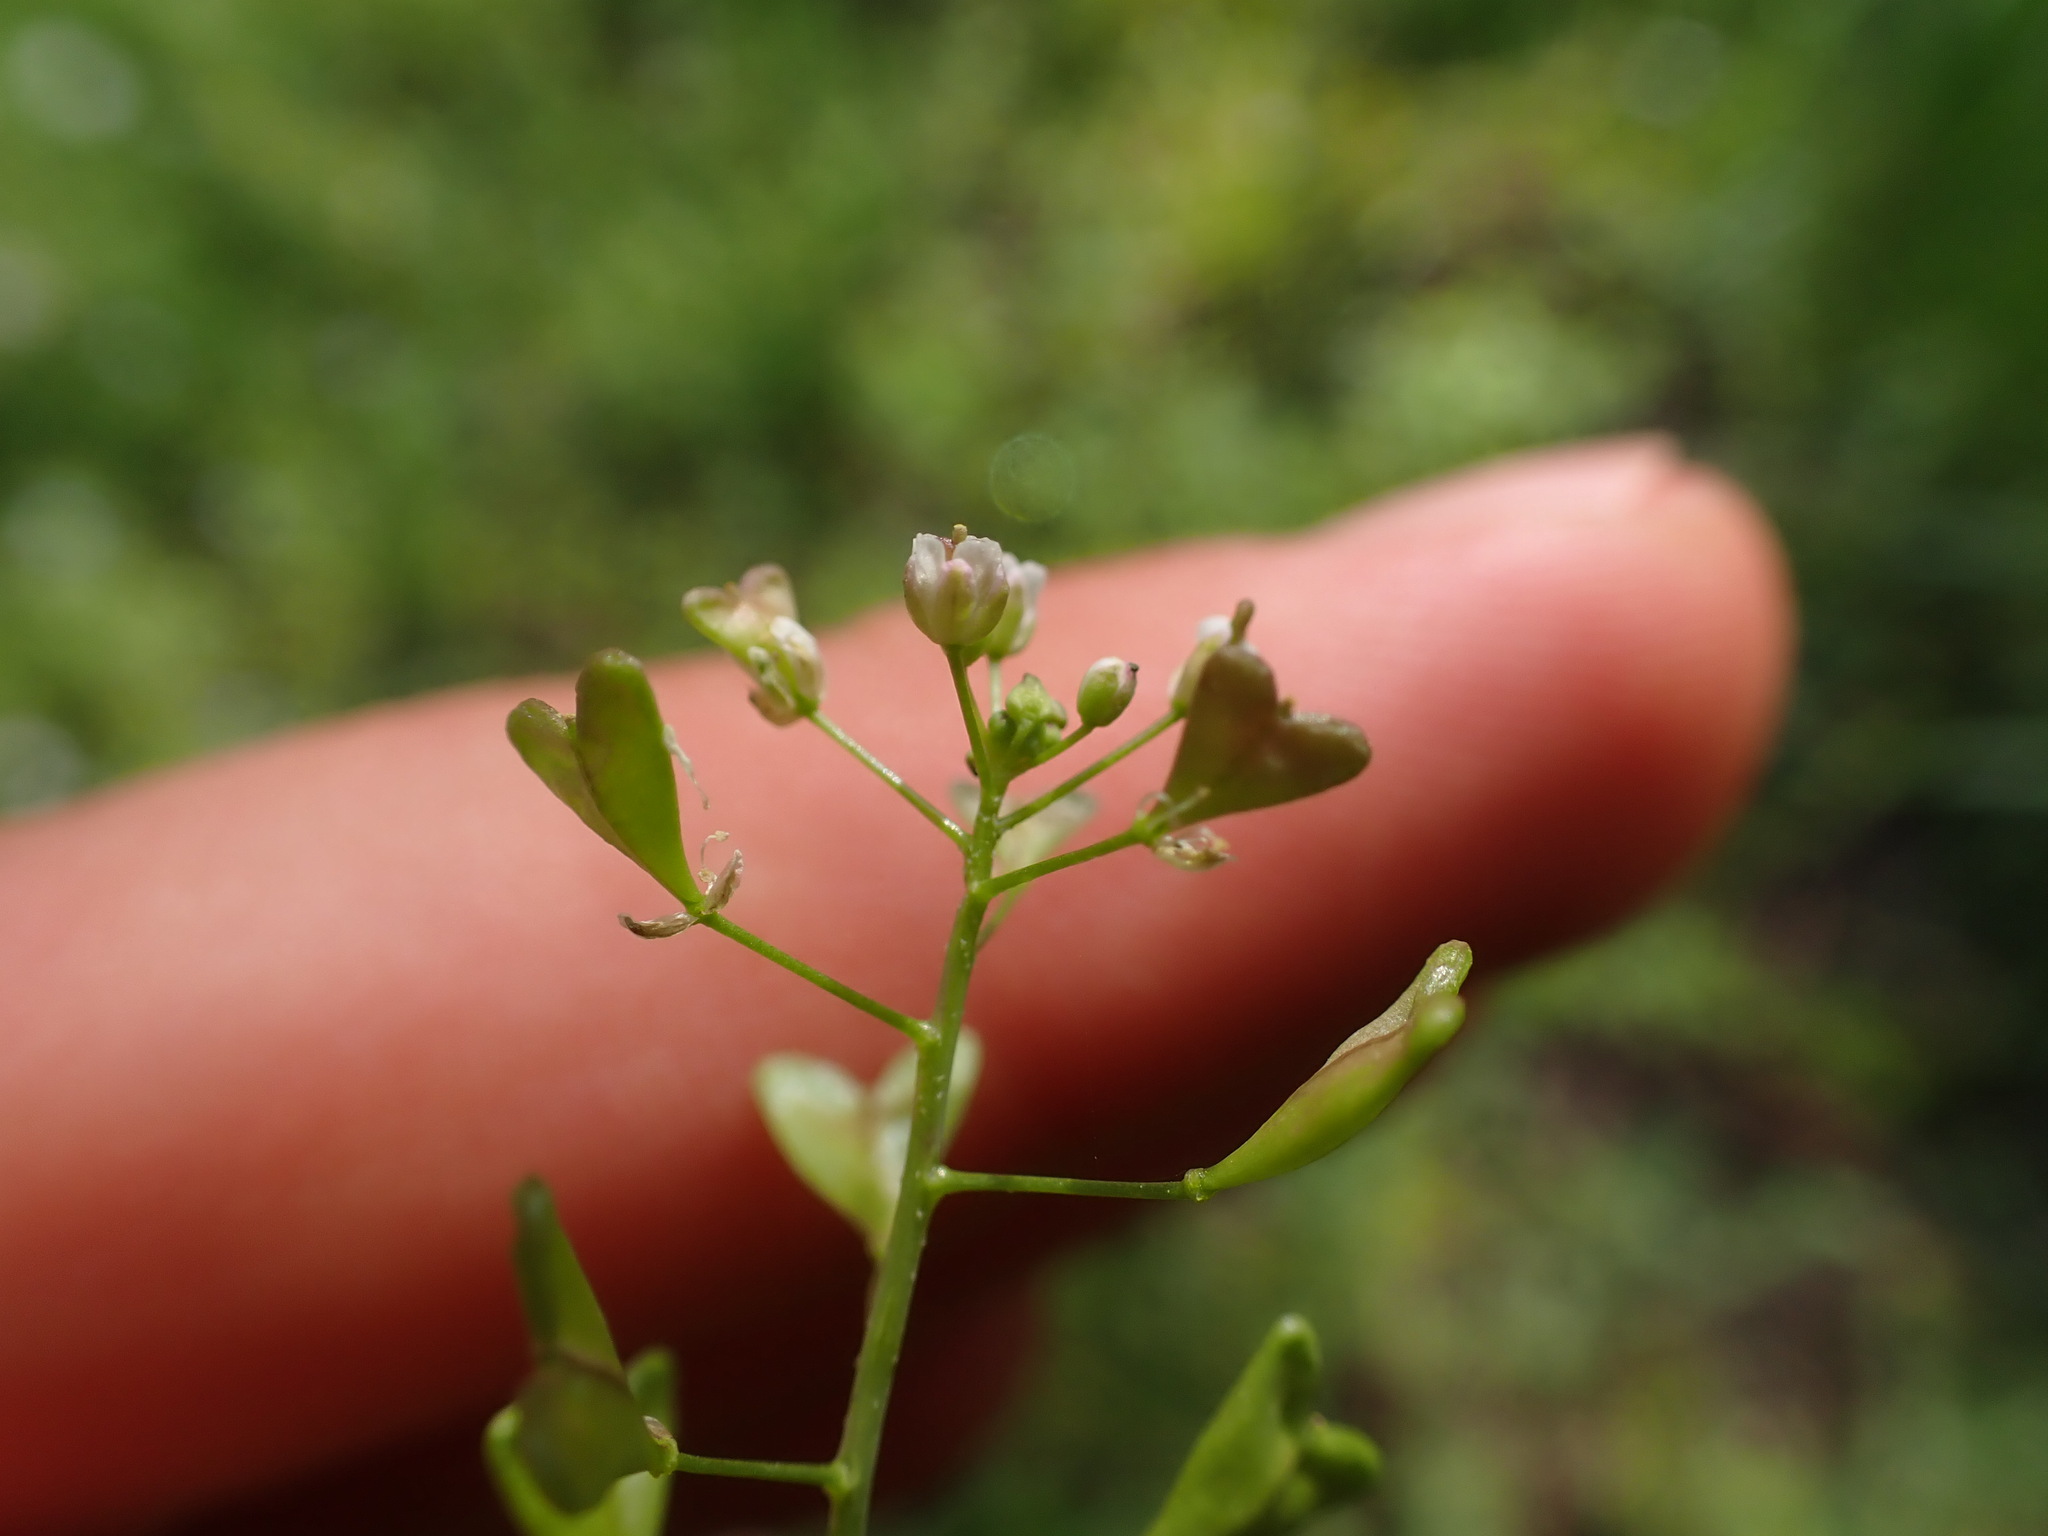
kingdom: Plantae
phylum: Tracheophyta
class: Magnoliopsida
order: Brassicales
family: Brassicaceae
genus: Capsella
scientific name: Capsella bursa-pastoris
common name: Shepherd's purse
